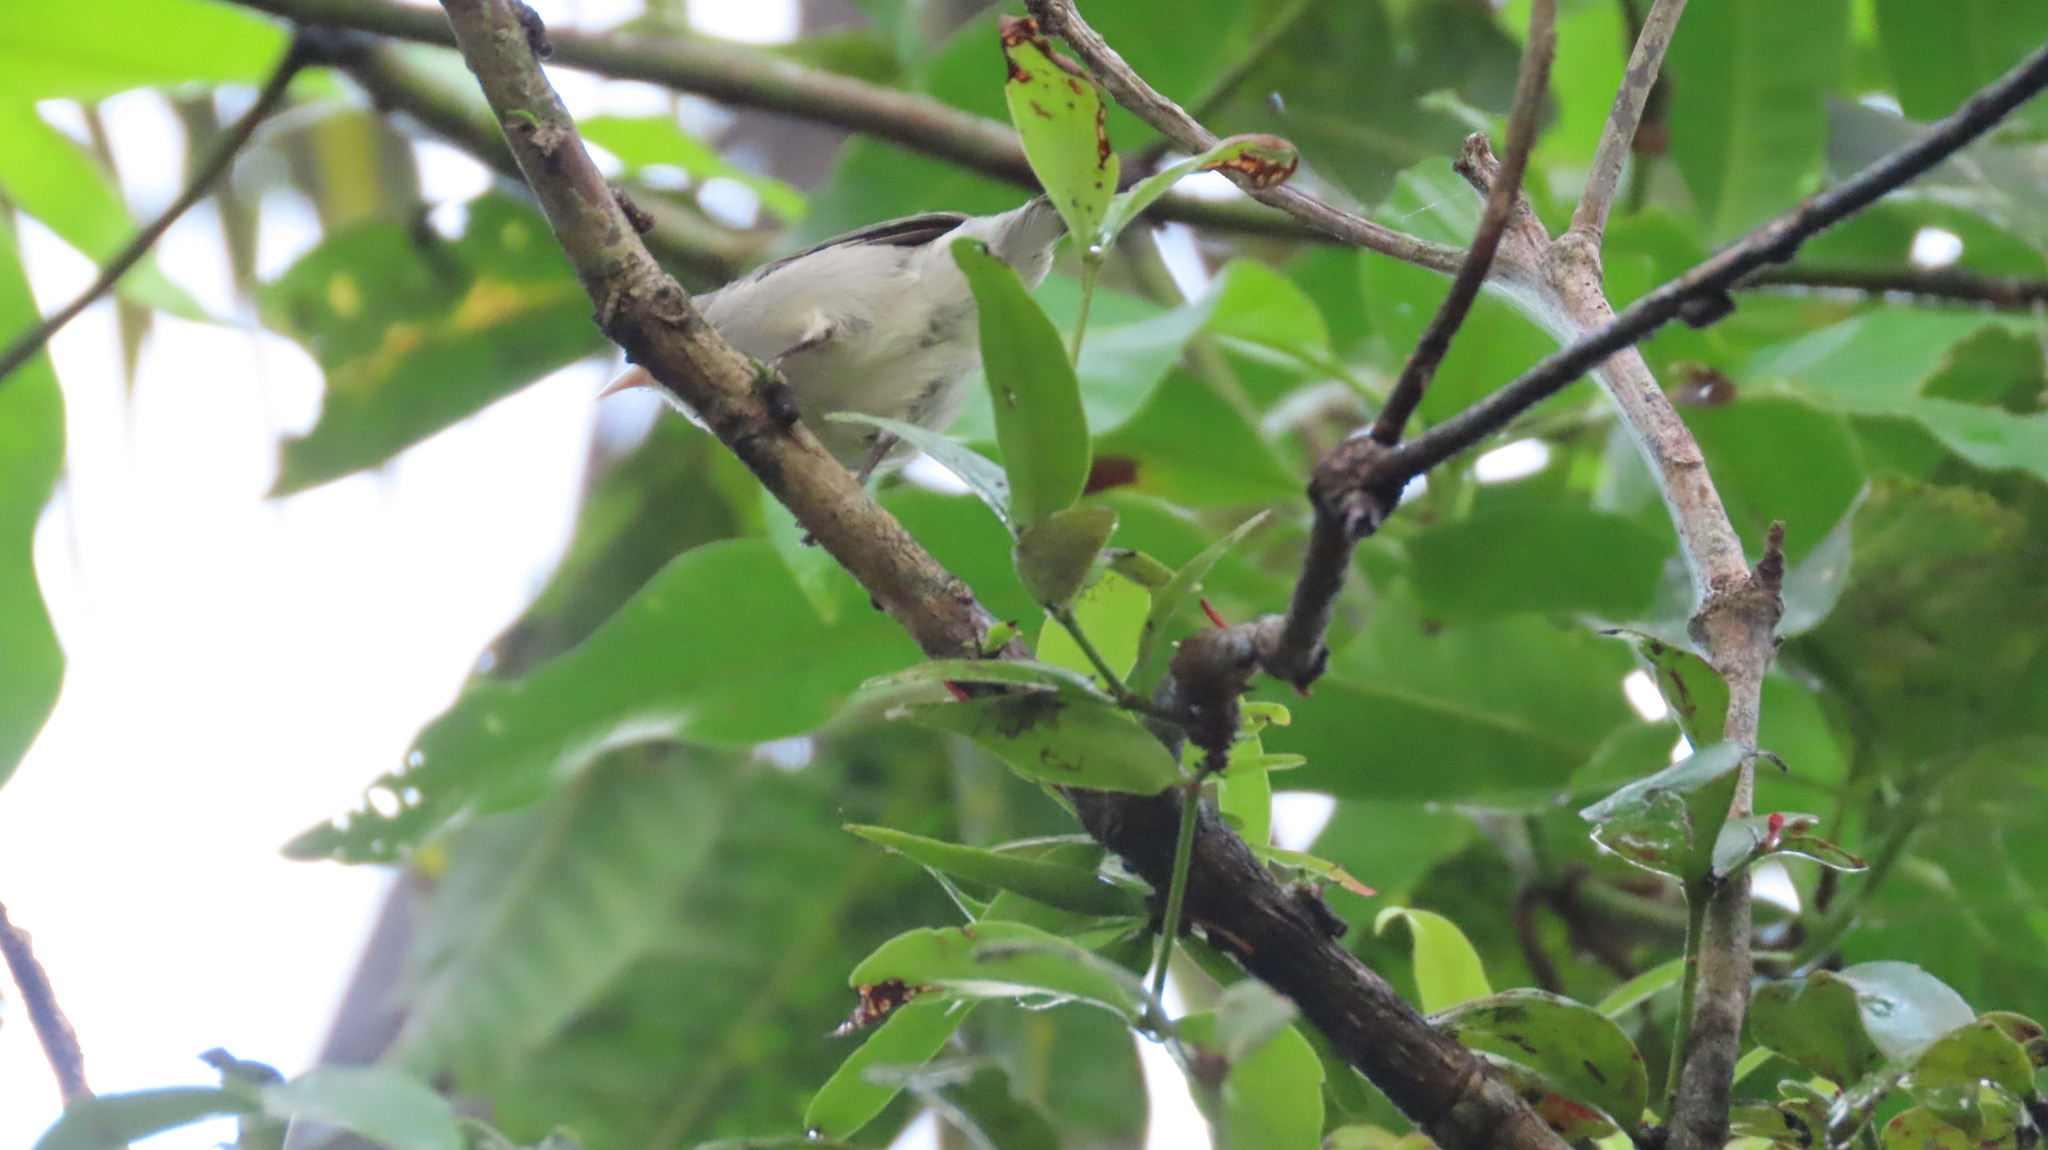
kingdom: Animalia
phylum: Chordata
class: Aves
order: Passeriformes
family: Dicaeidae
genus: Dicaeum
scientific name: Dicaeum erythrorhynchos
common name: Pale-billed flowerpecker
